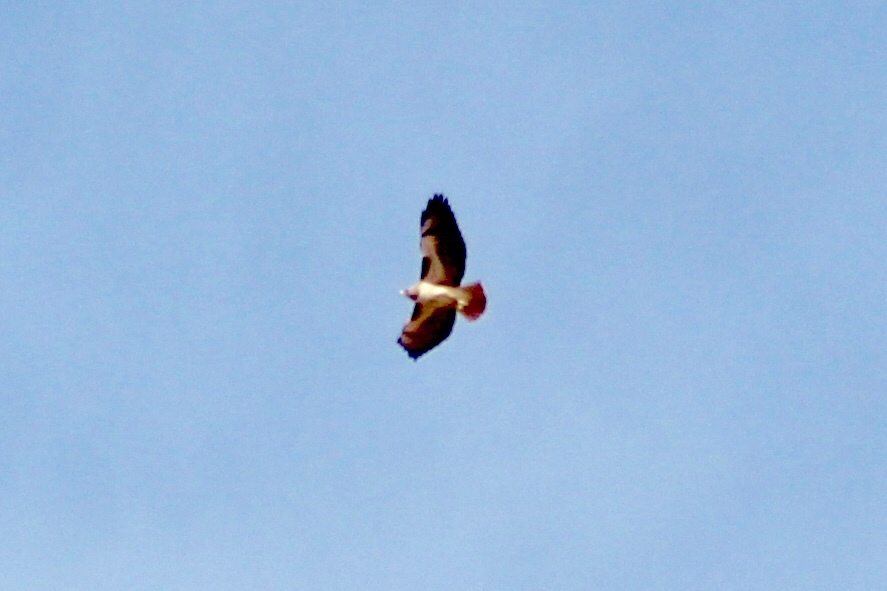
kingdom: Animalia
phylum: Chordata
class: Aves
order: Accipitriformes
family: Accipitridae
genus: Buteo
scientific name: Buteo jamaicensis
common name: Red-tailed hawk
